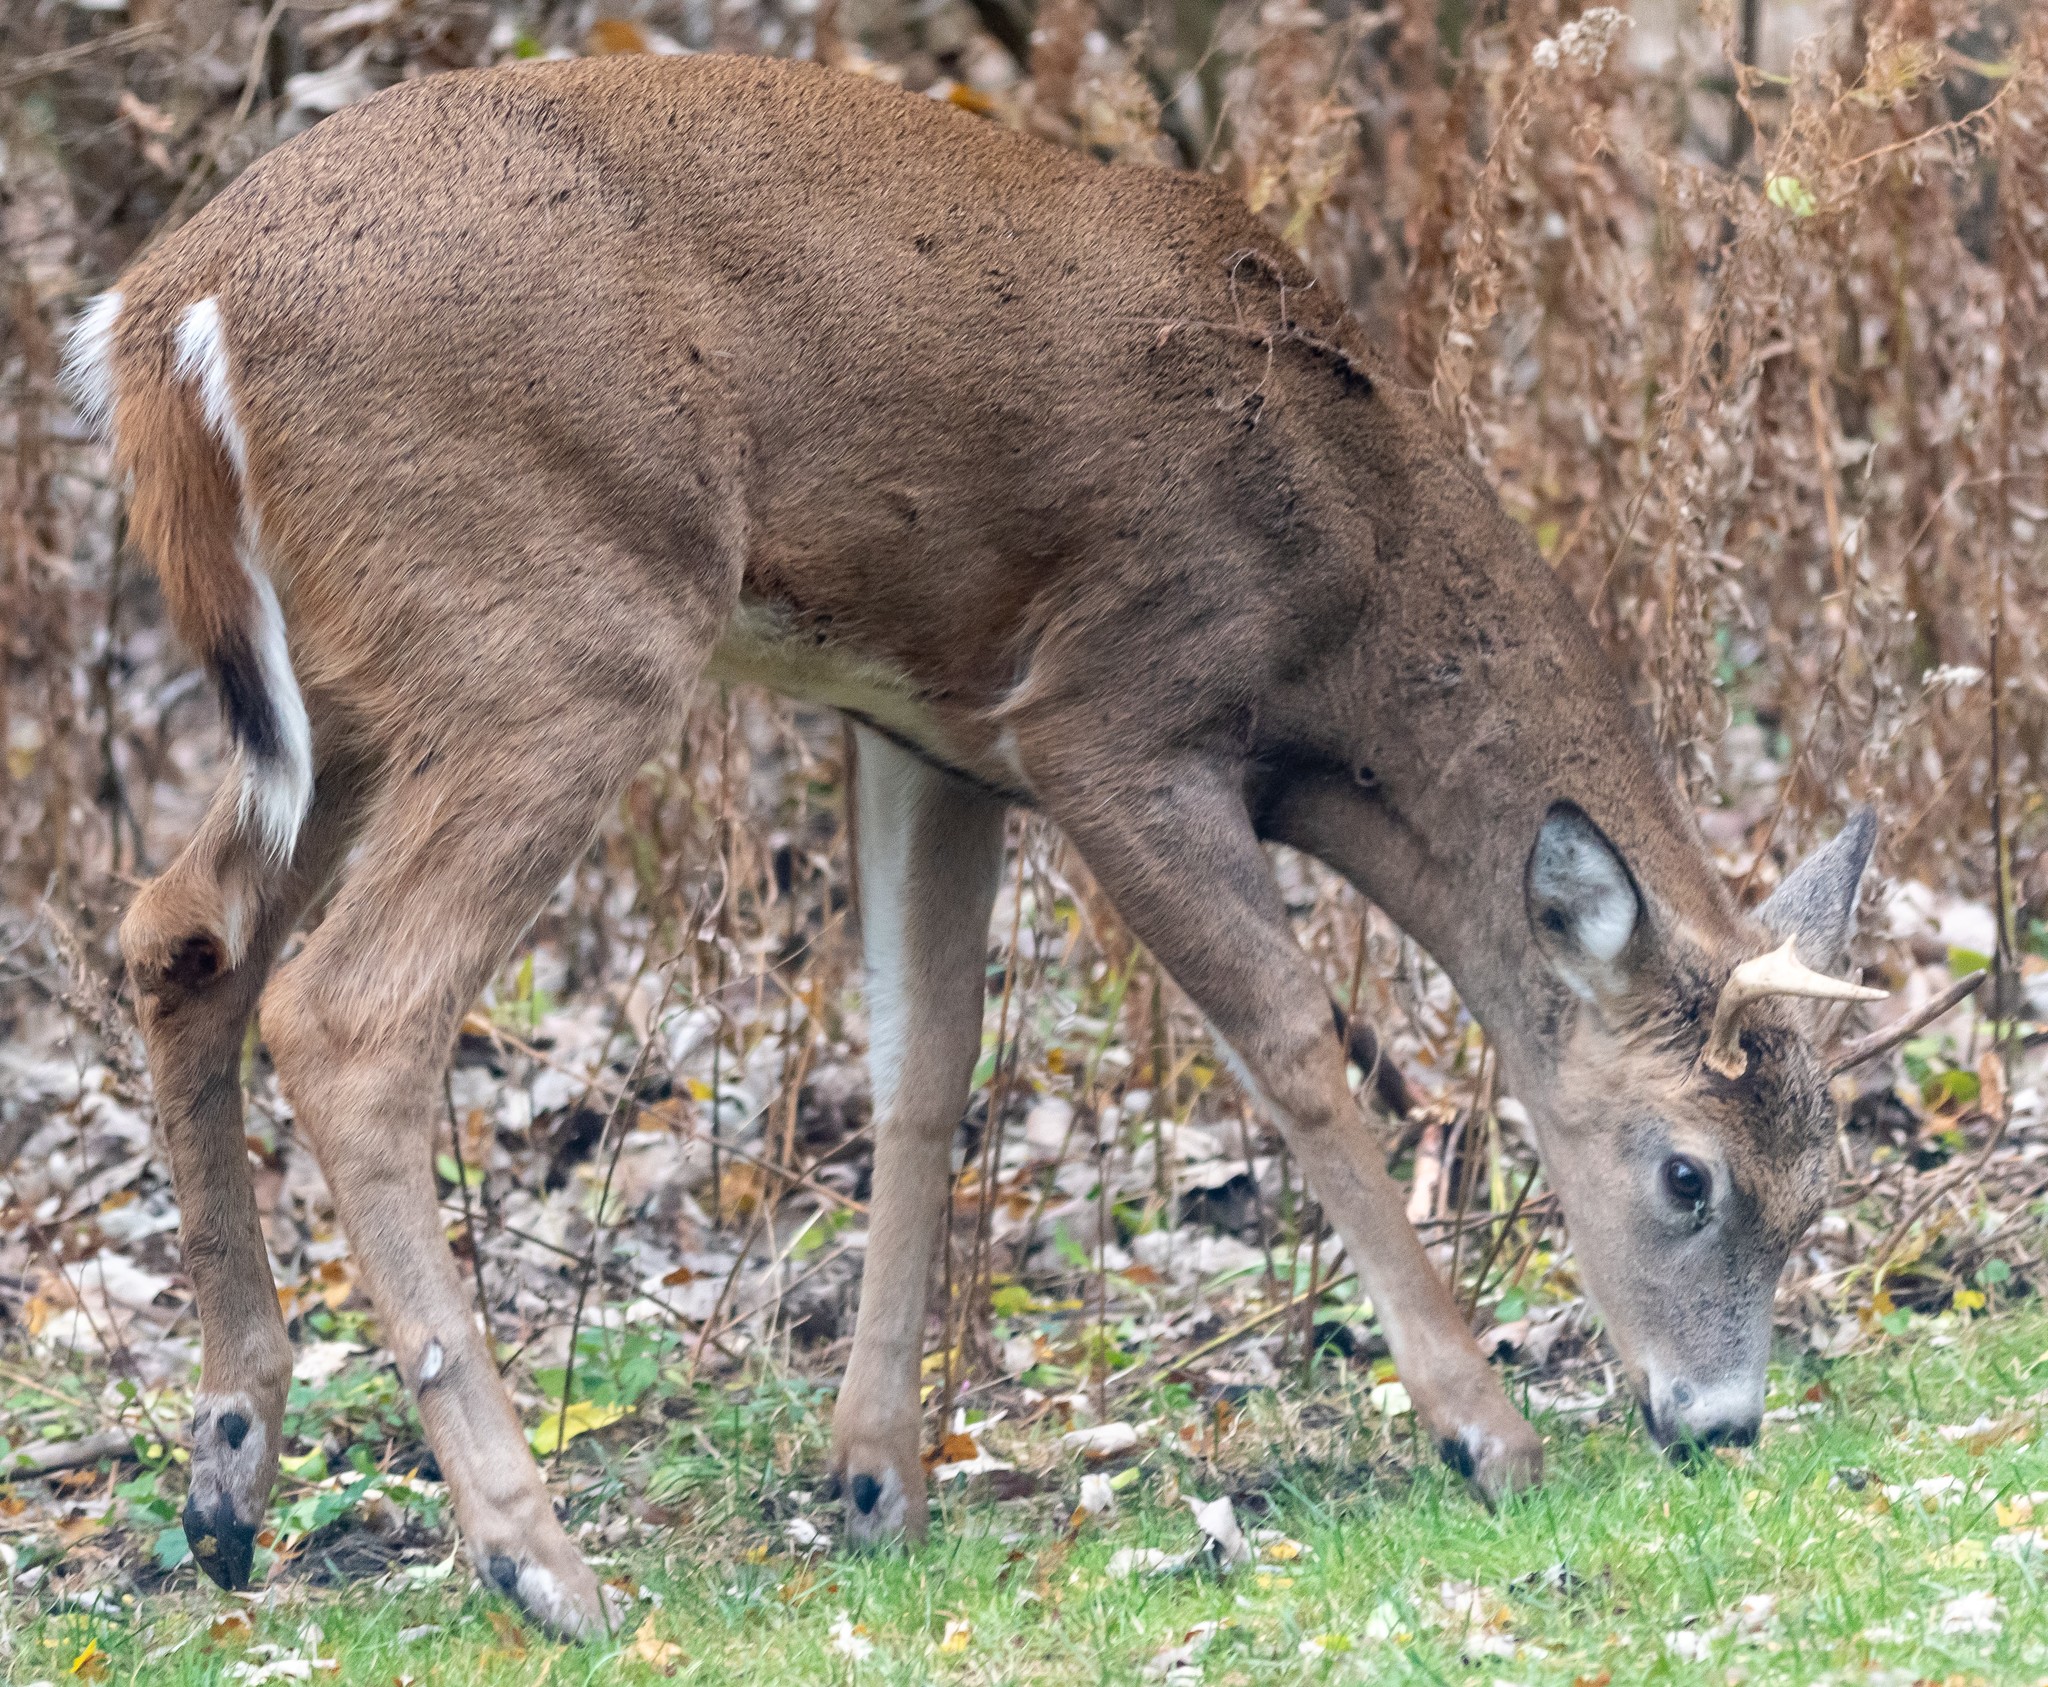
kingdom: Animalia
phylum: Chordata
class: Mammalia
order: Artiodactyla
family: Cervidae
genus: Odocoileus
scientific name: Odocoileus virginianus
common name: White-tailed deer
